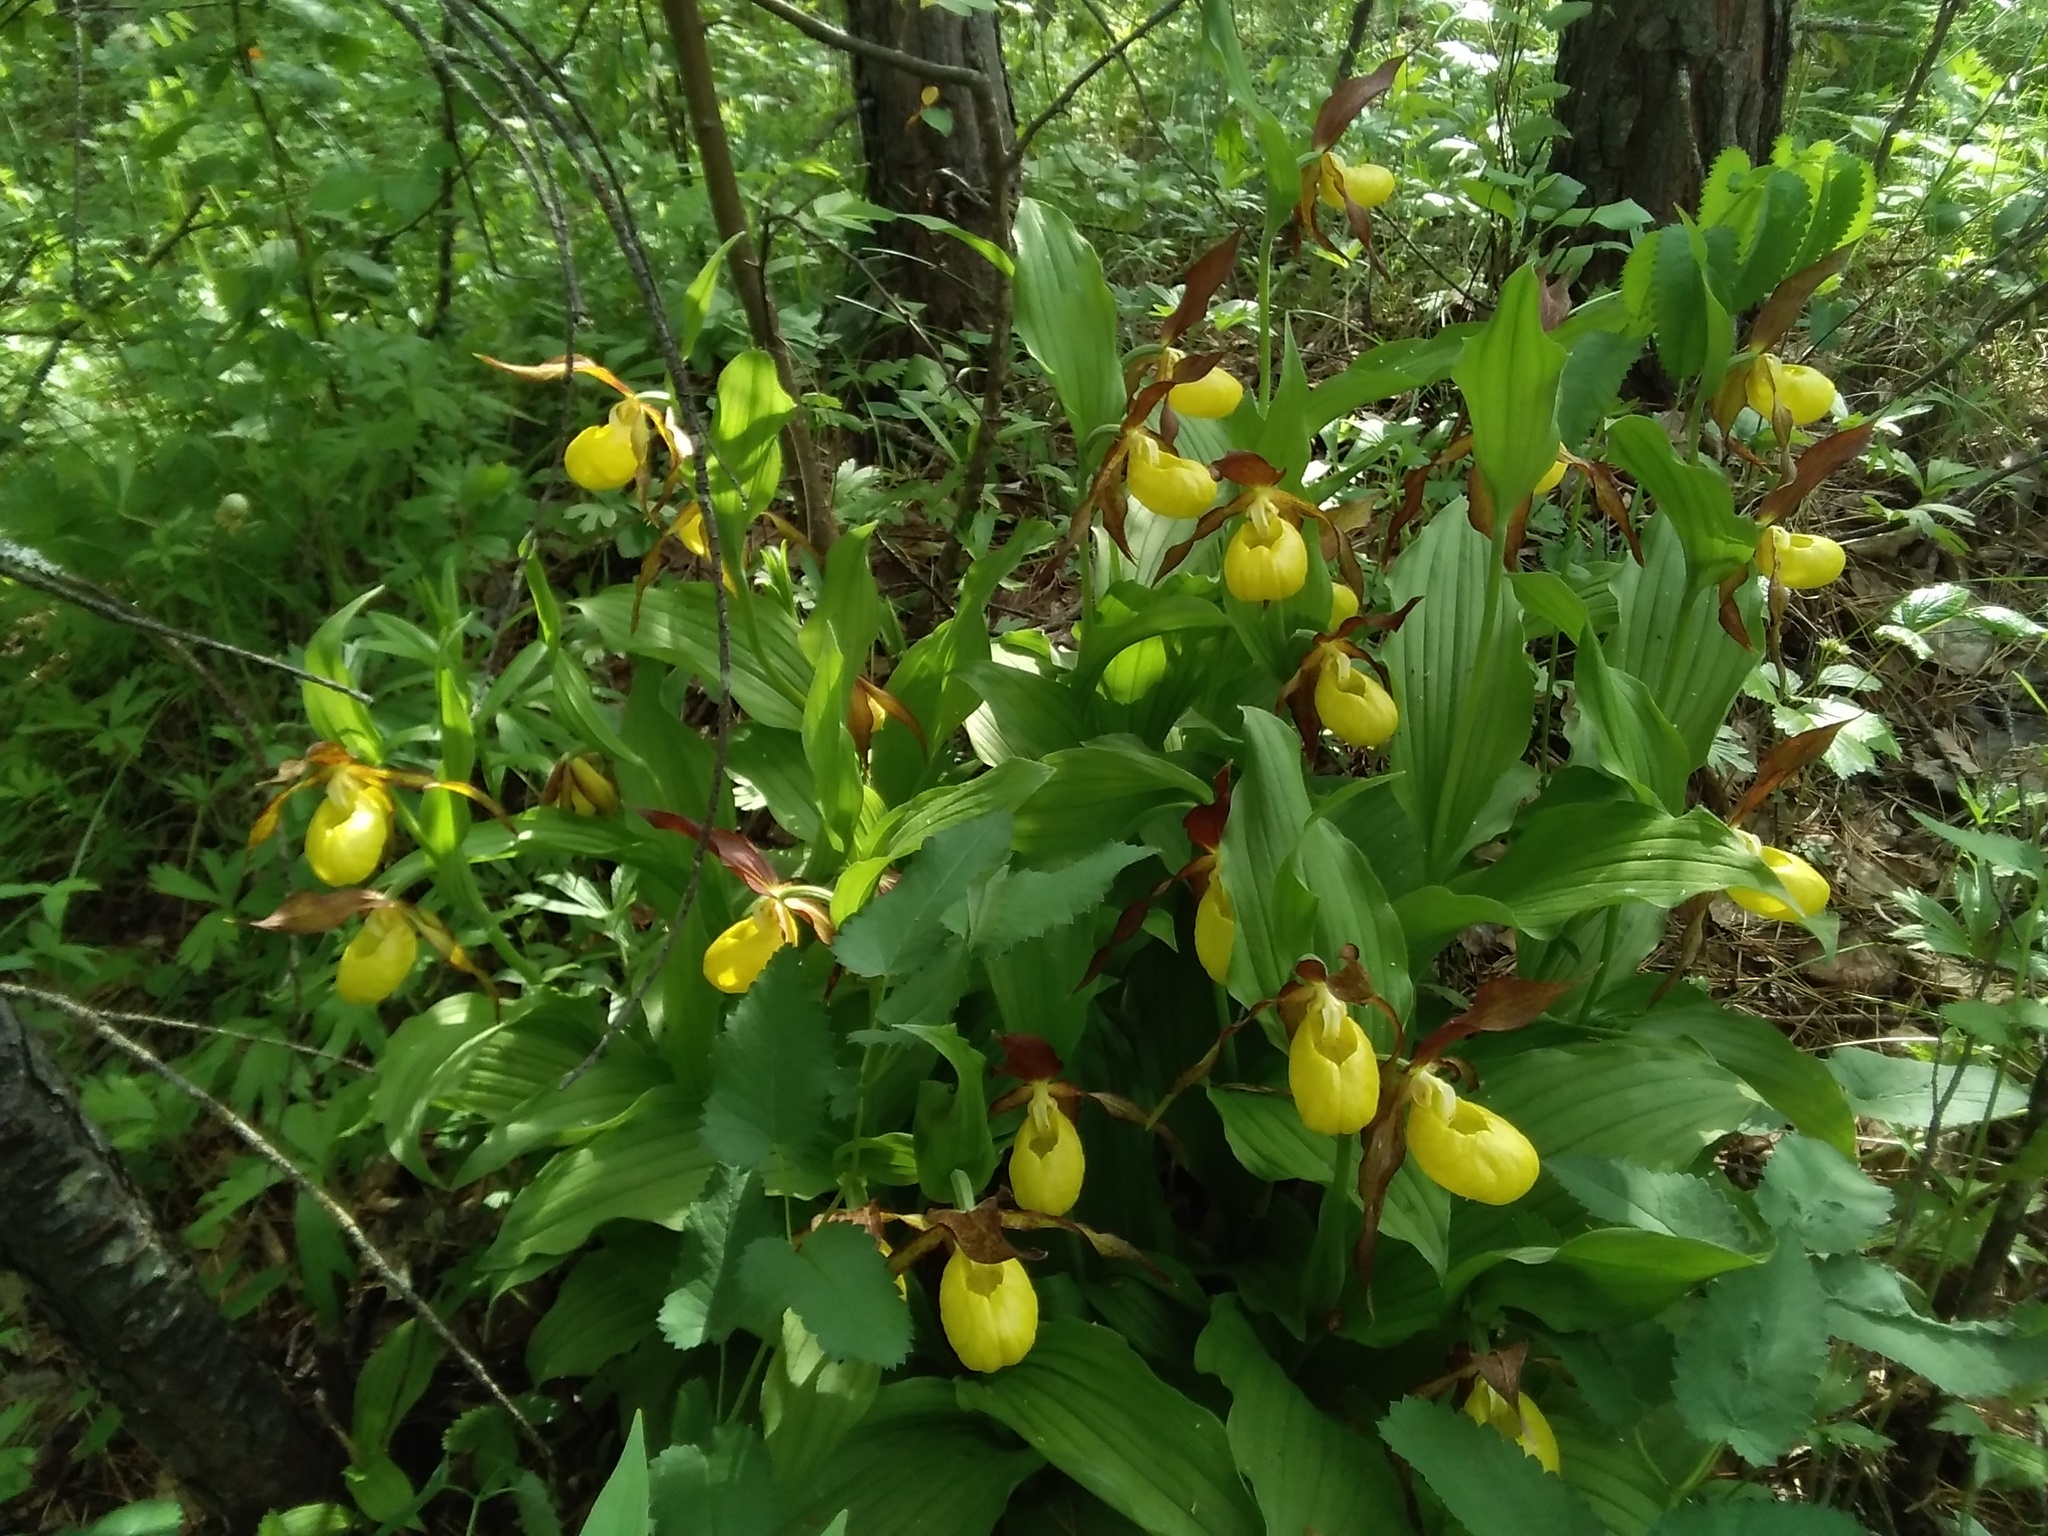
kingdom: Plantae
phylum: Tracheophyta
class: Liliopsida
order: Asparagales
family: Orchidaceae
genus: Cypripedium
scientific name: Cypripedium calceolus
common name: Lady's-slipper
